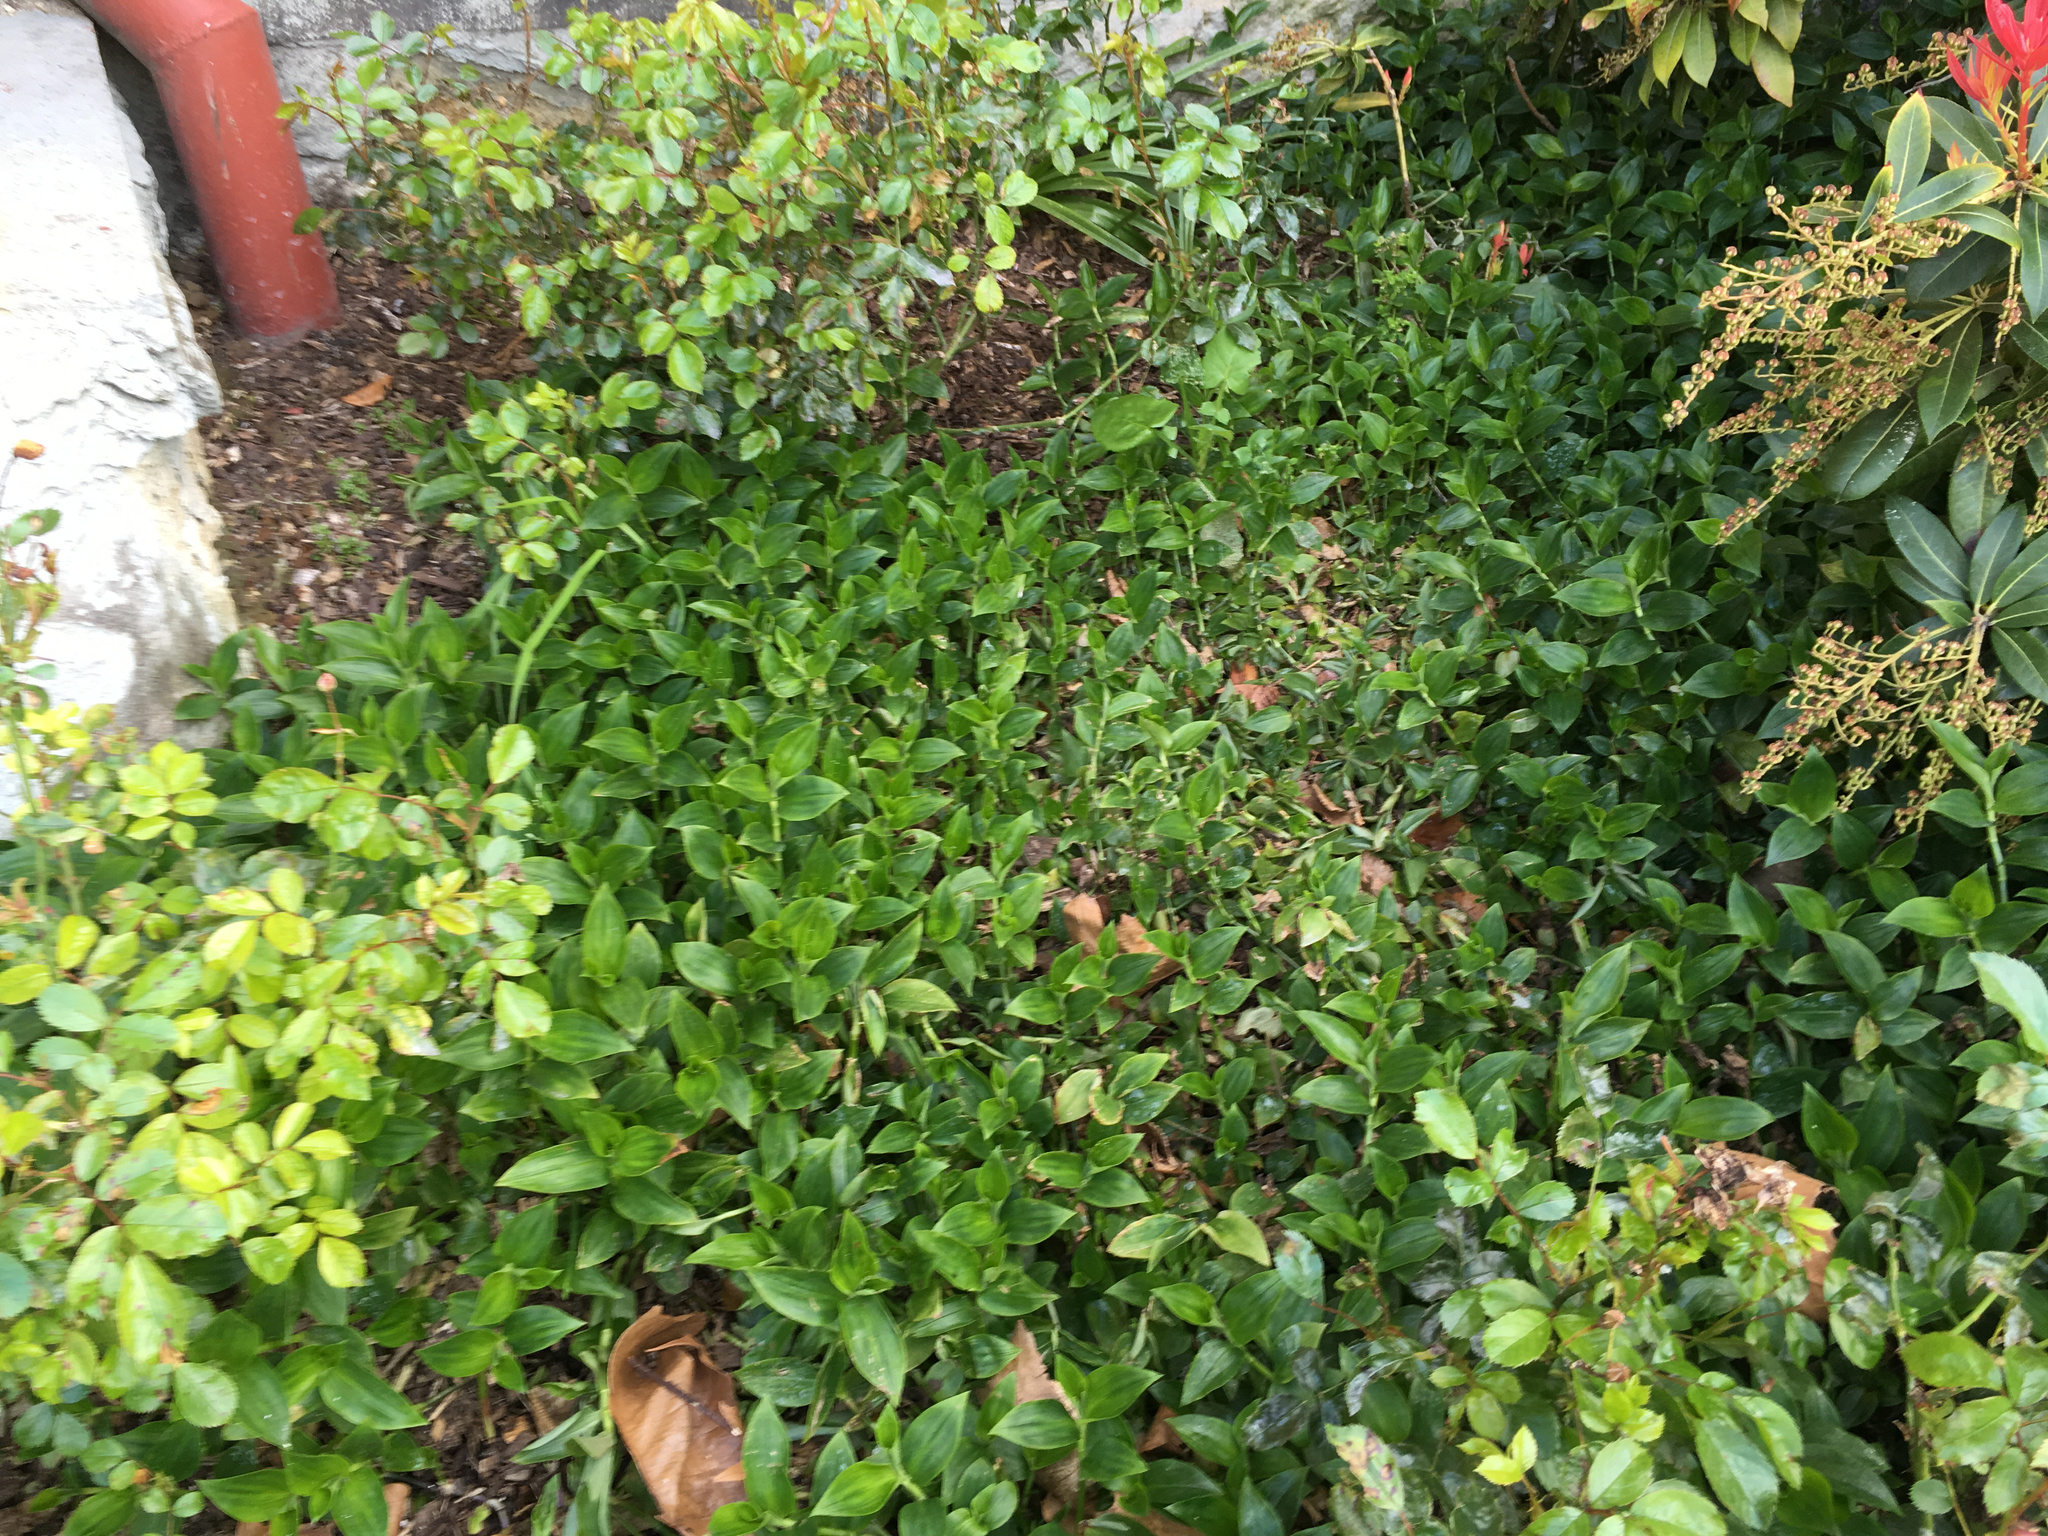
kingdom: Plantae
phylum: Tracheophyta
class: Liliopsida
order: Commelinales
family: Commelinaceae
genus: Tradescantia
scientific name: Tradescantia fluminensis
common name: Wandering-jew
